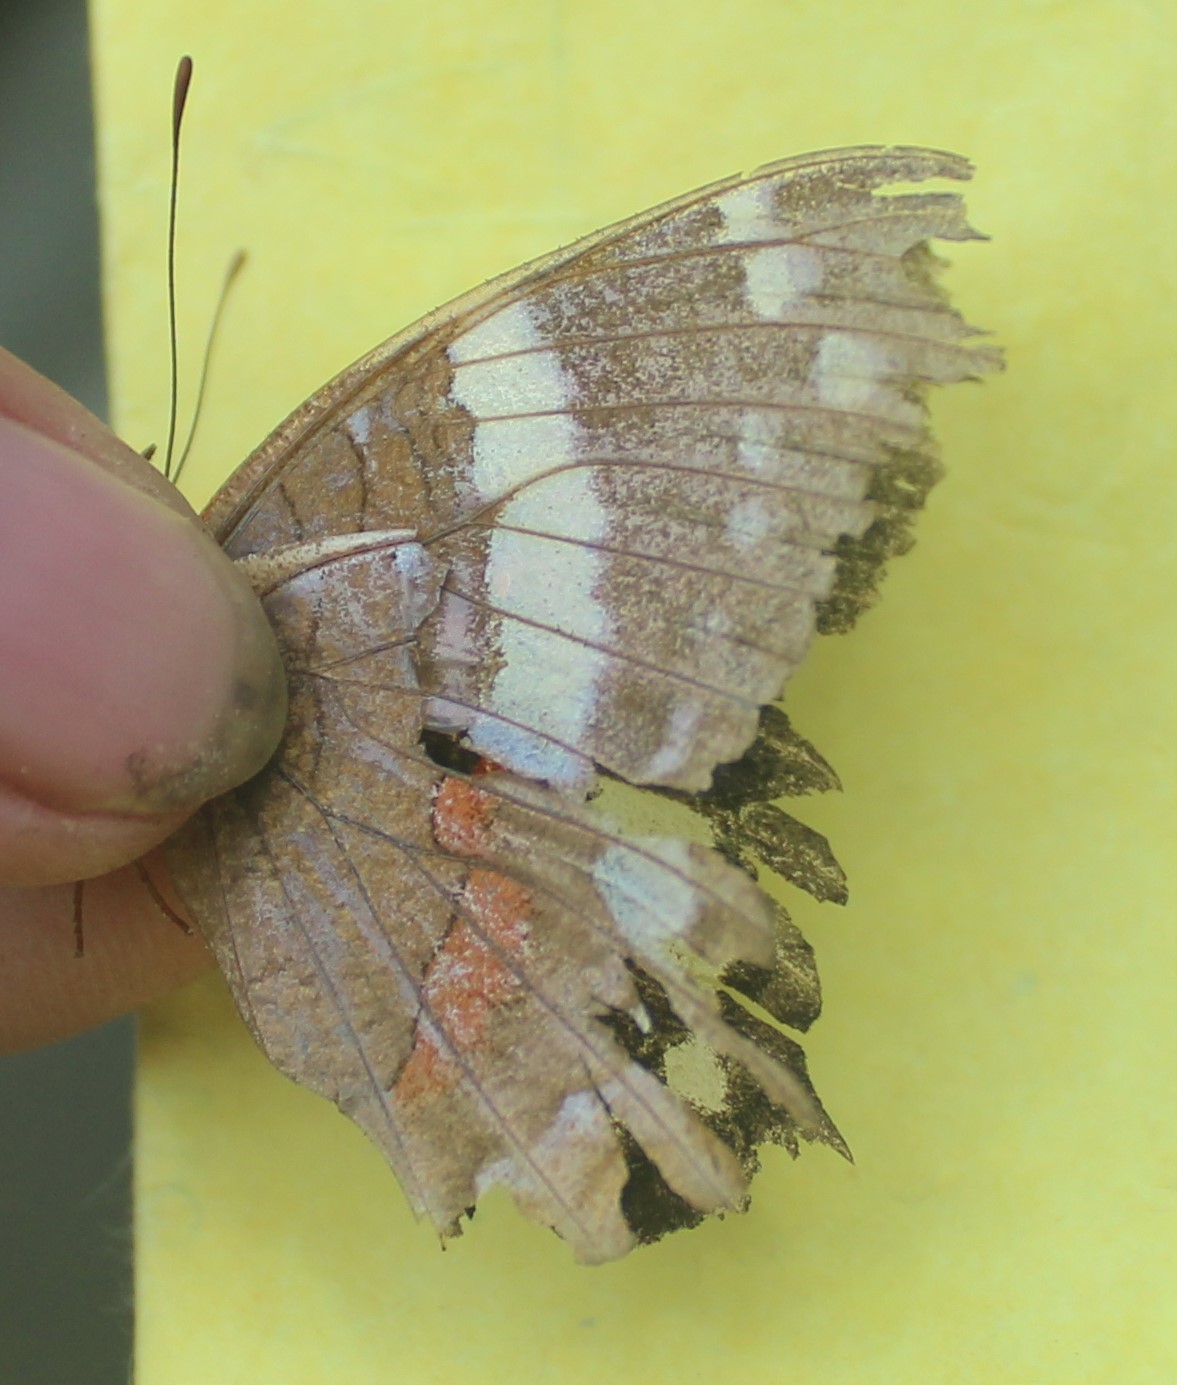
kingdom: Animalia
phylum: Arthropoda
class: Insecta
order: Lepidoptera
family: Nymphalidae
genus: Anartia
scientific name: Anartia fatima
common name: Banded peacock
